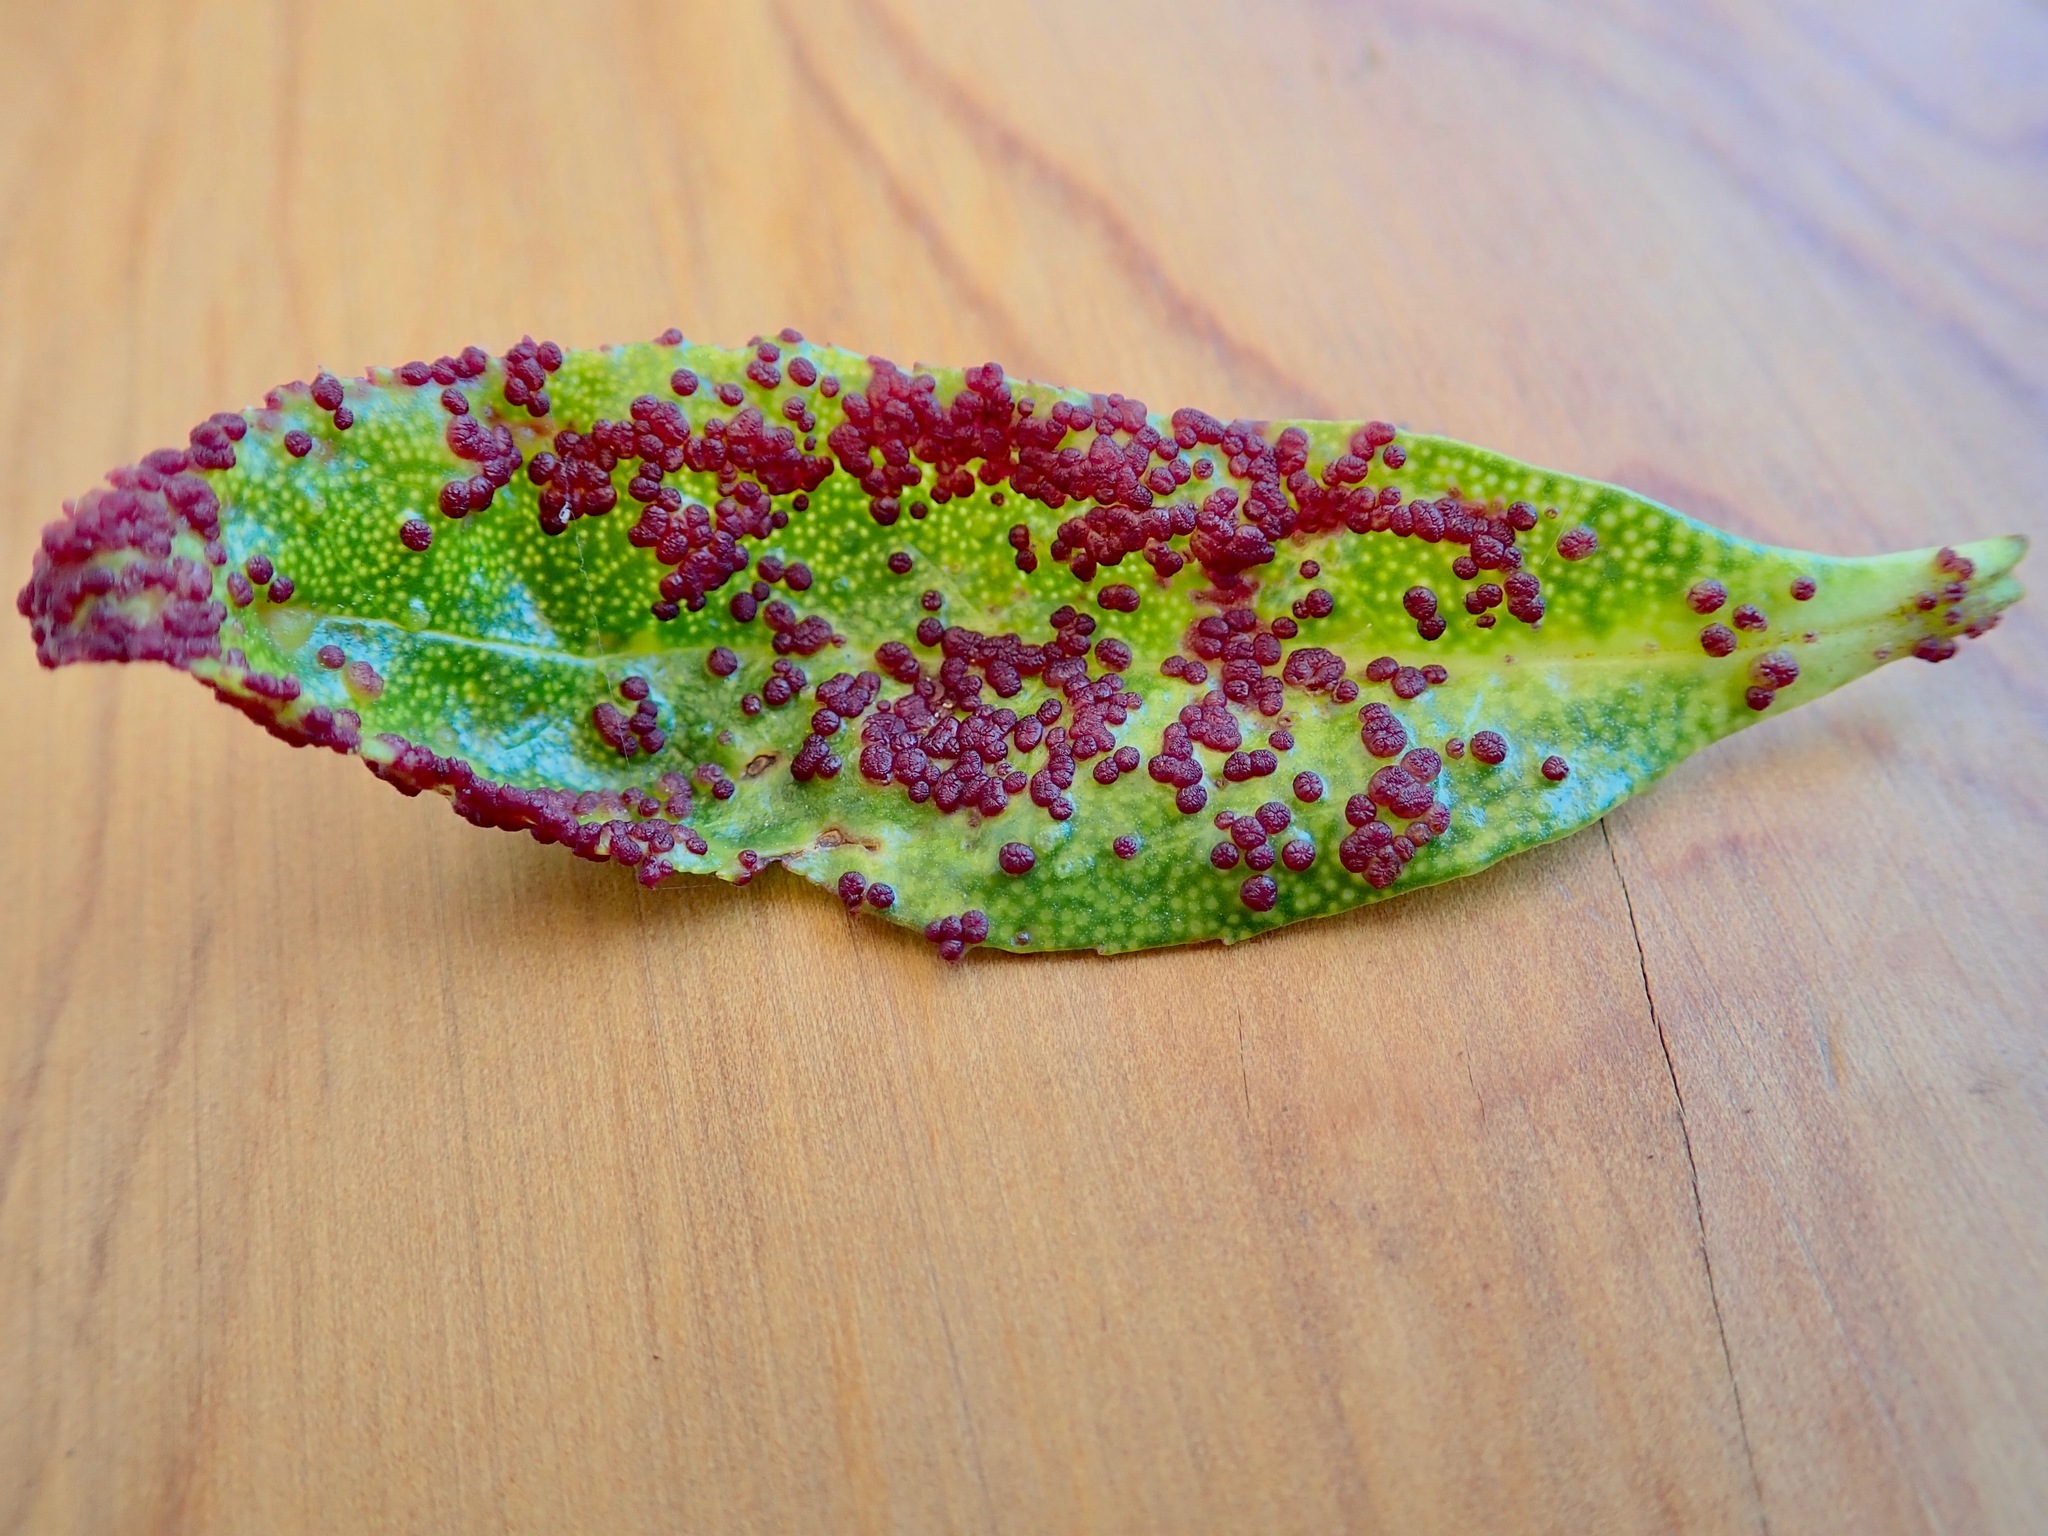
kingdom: Animalia
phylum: Arthropoda
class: Arachnida
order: Trombidiformes
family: Eriophyidae
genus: Aceria
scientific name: Aceria healyi
